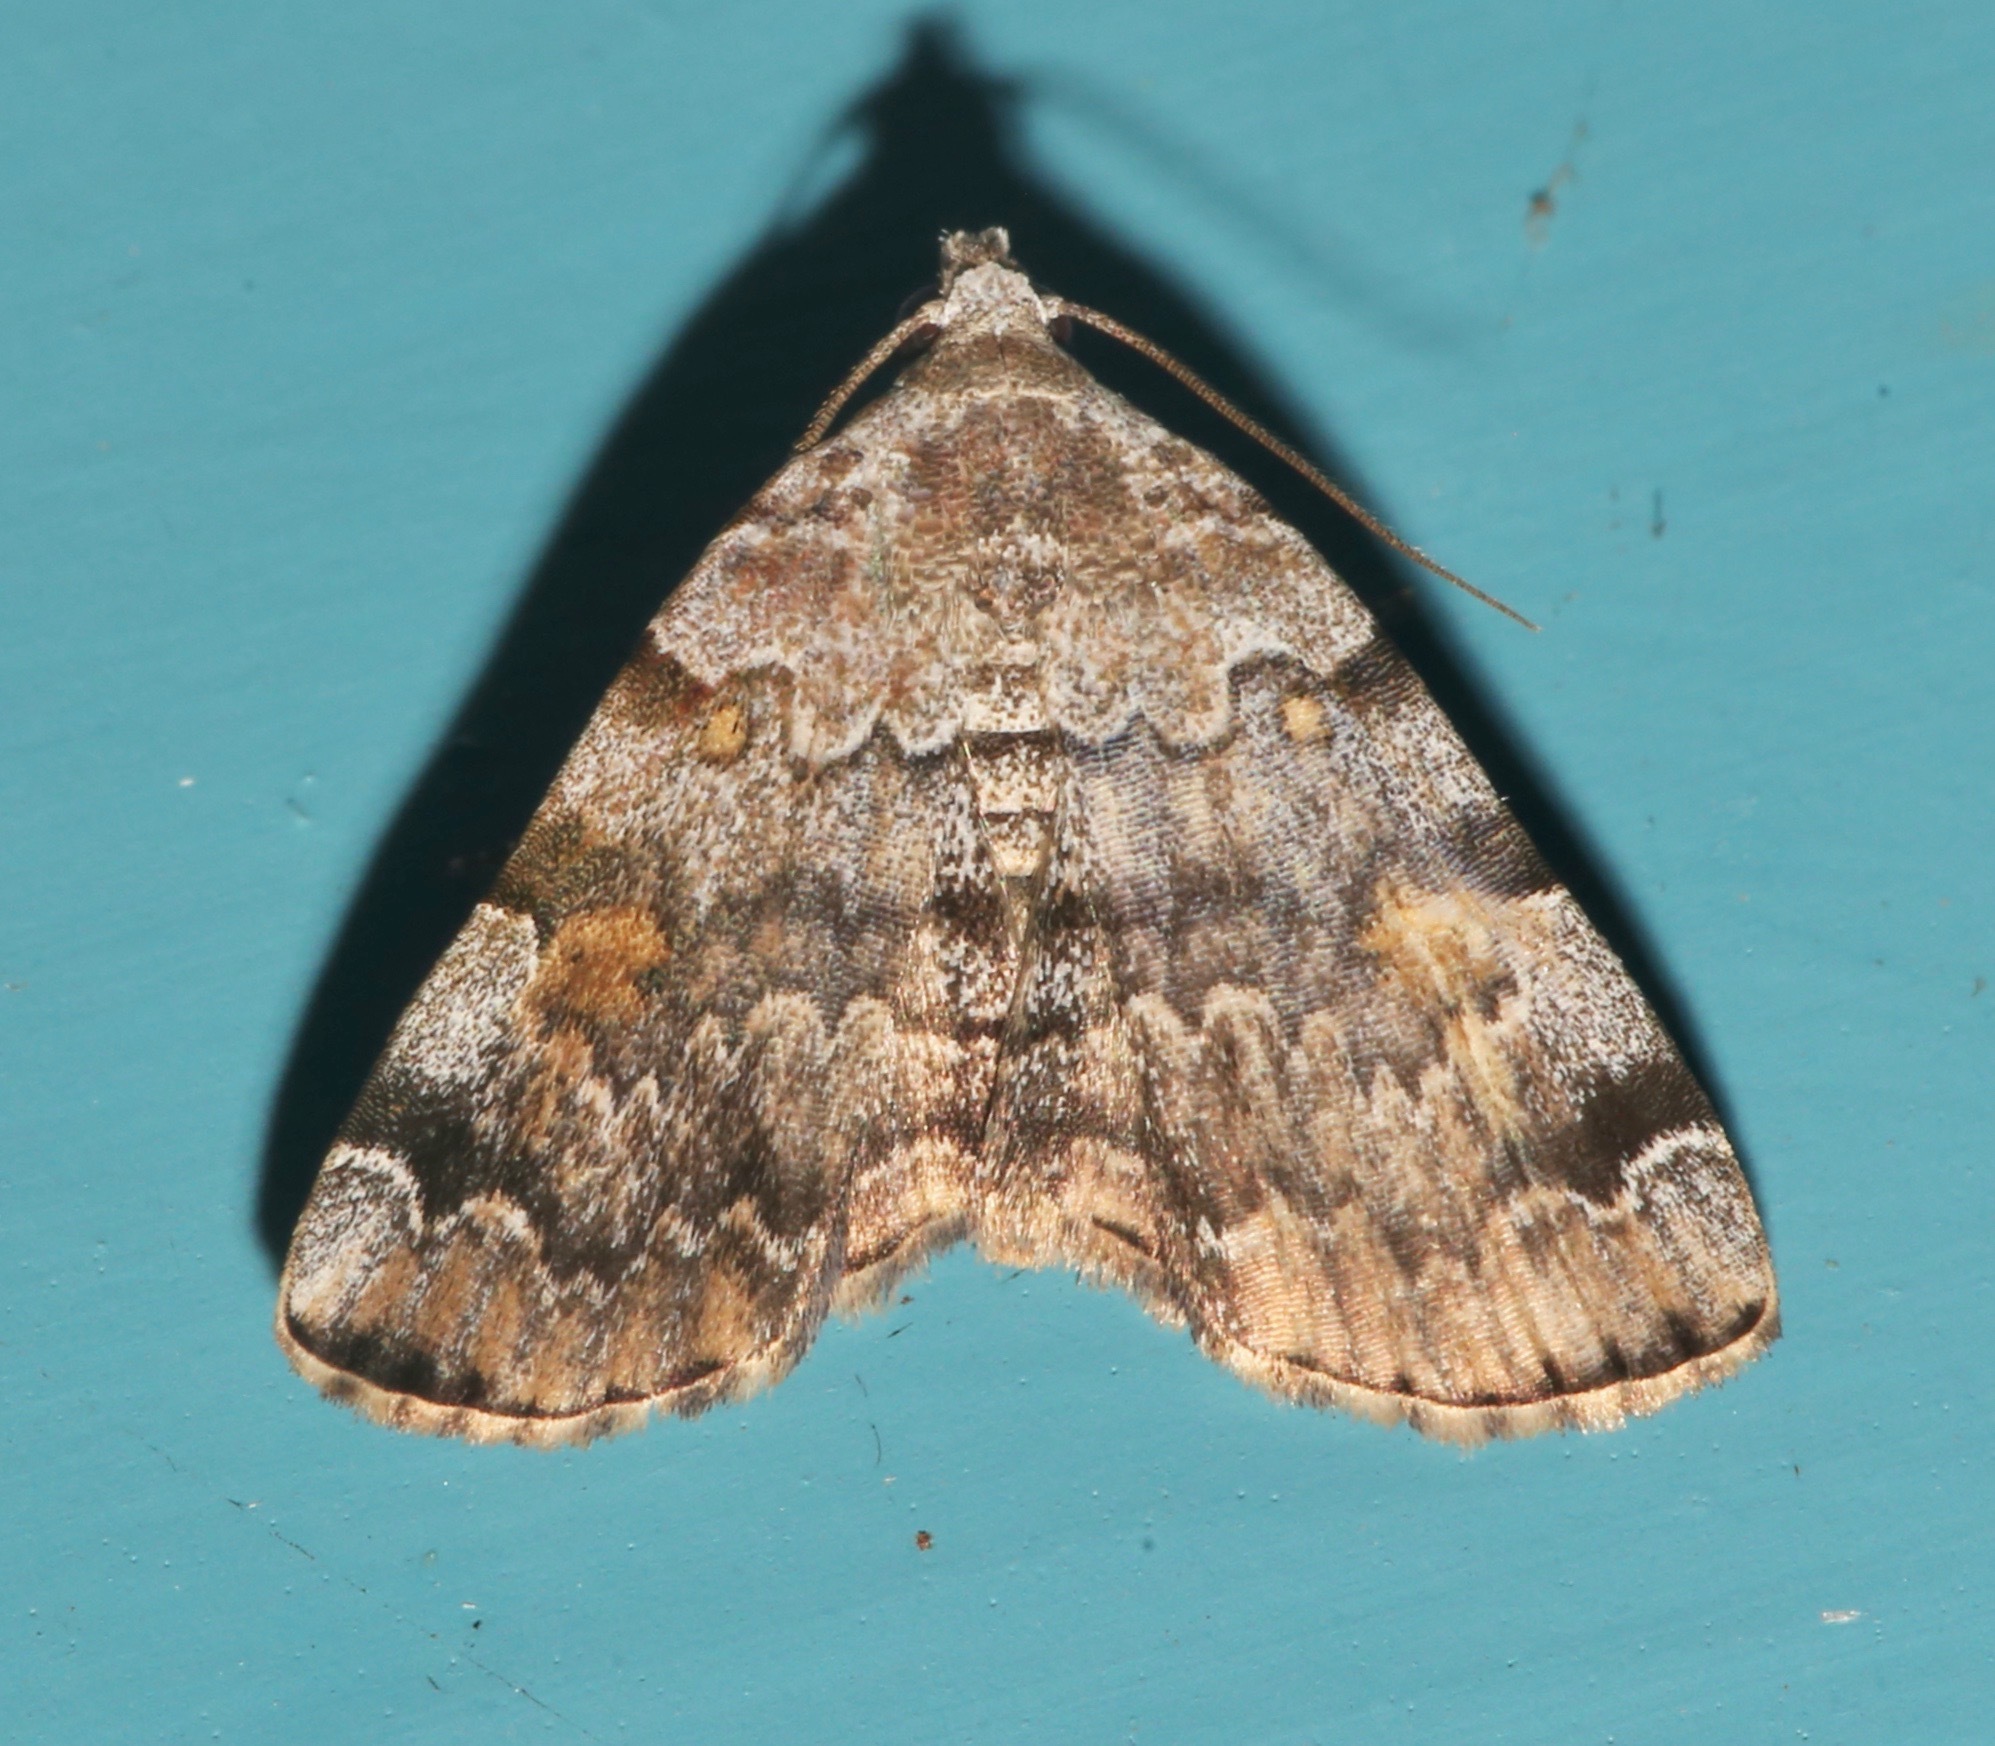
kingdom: Animalia
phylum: Arthropoda
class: Insecta
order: Lepidoptera
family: Erebidae
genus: Idia
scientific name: Idia americalis
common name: American idia moth
